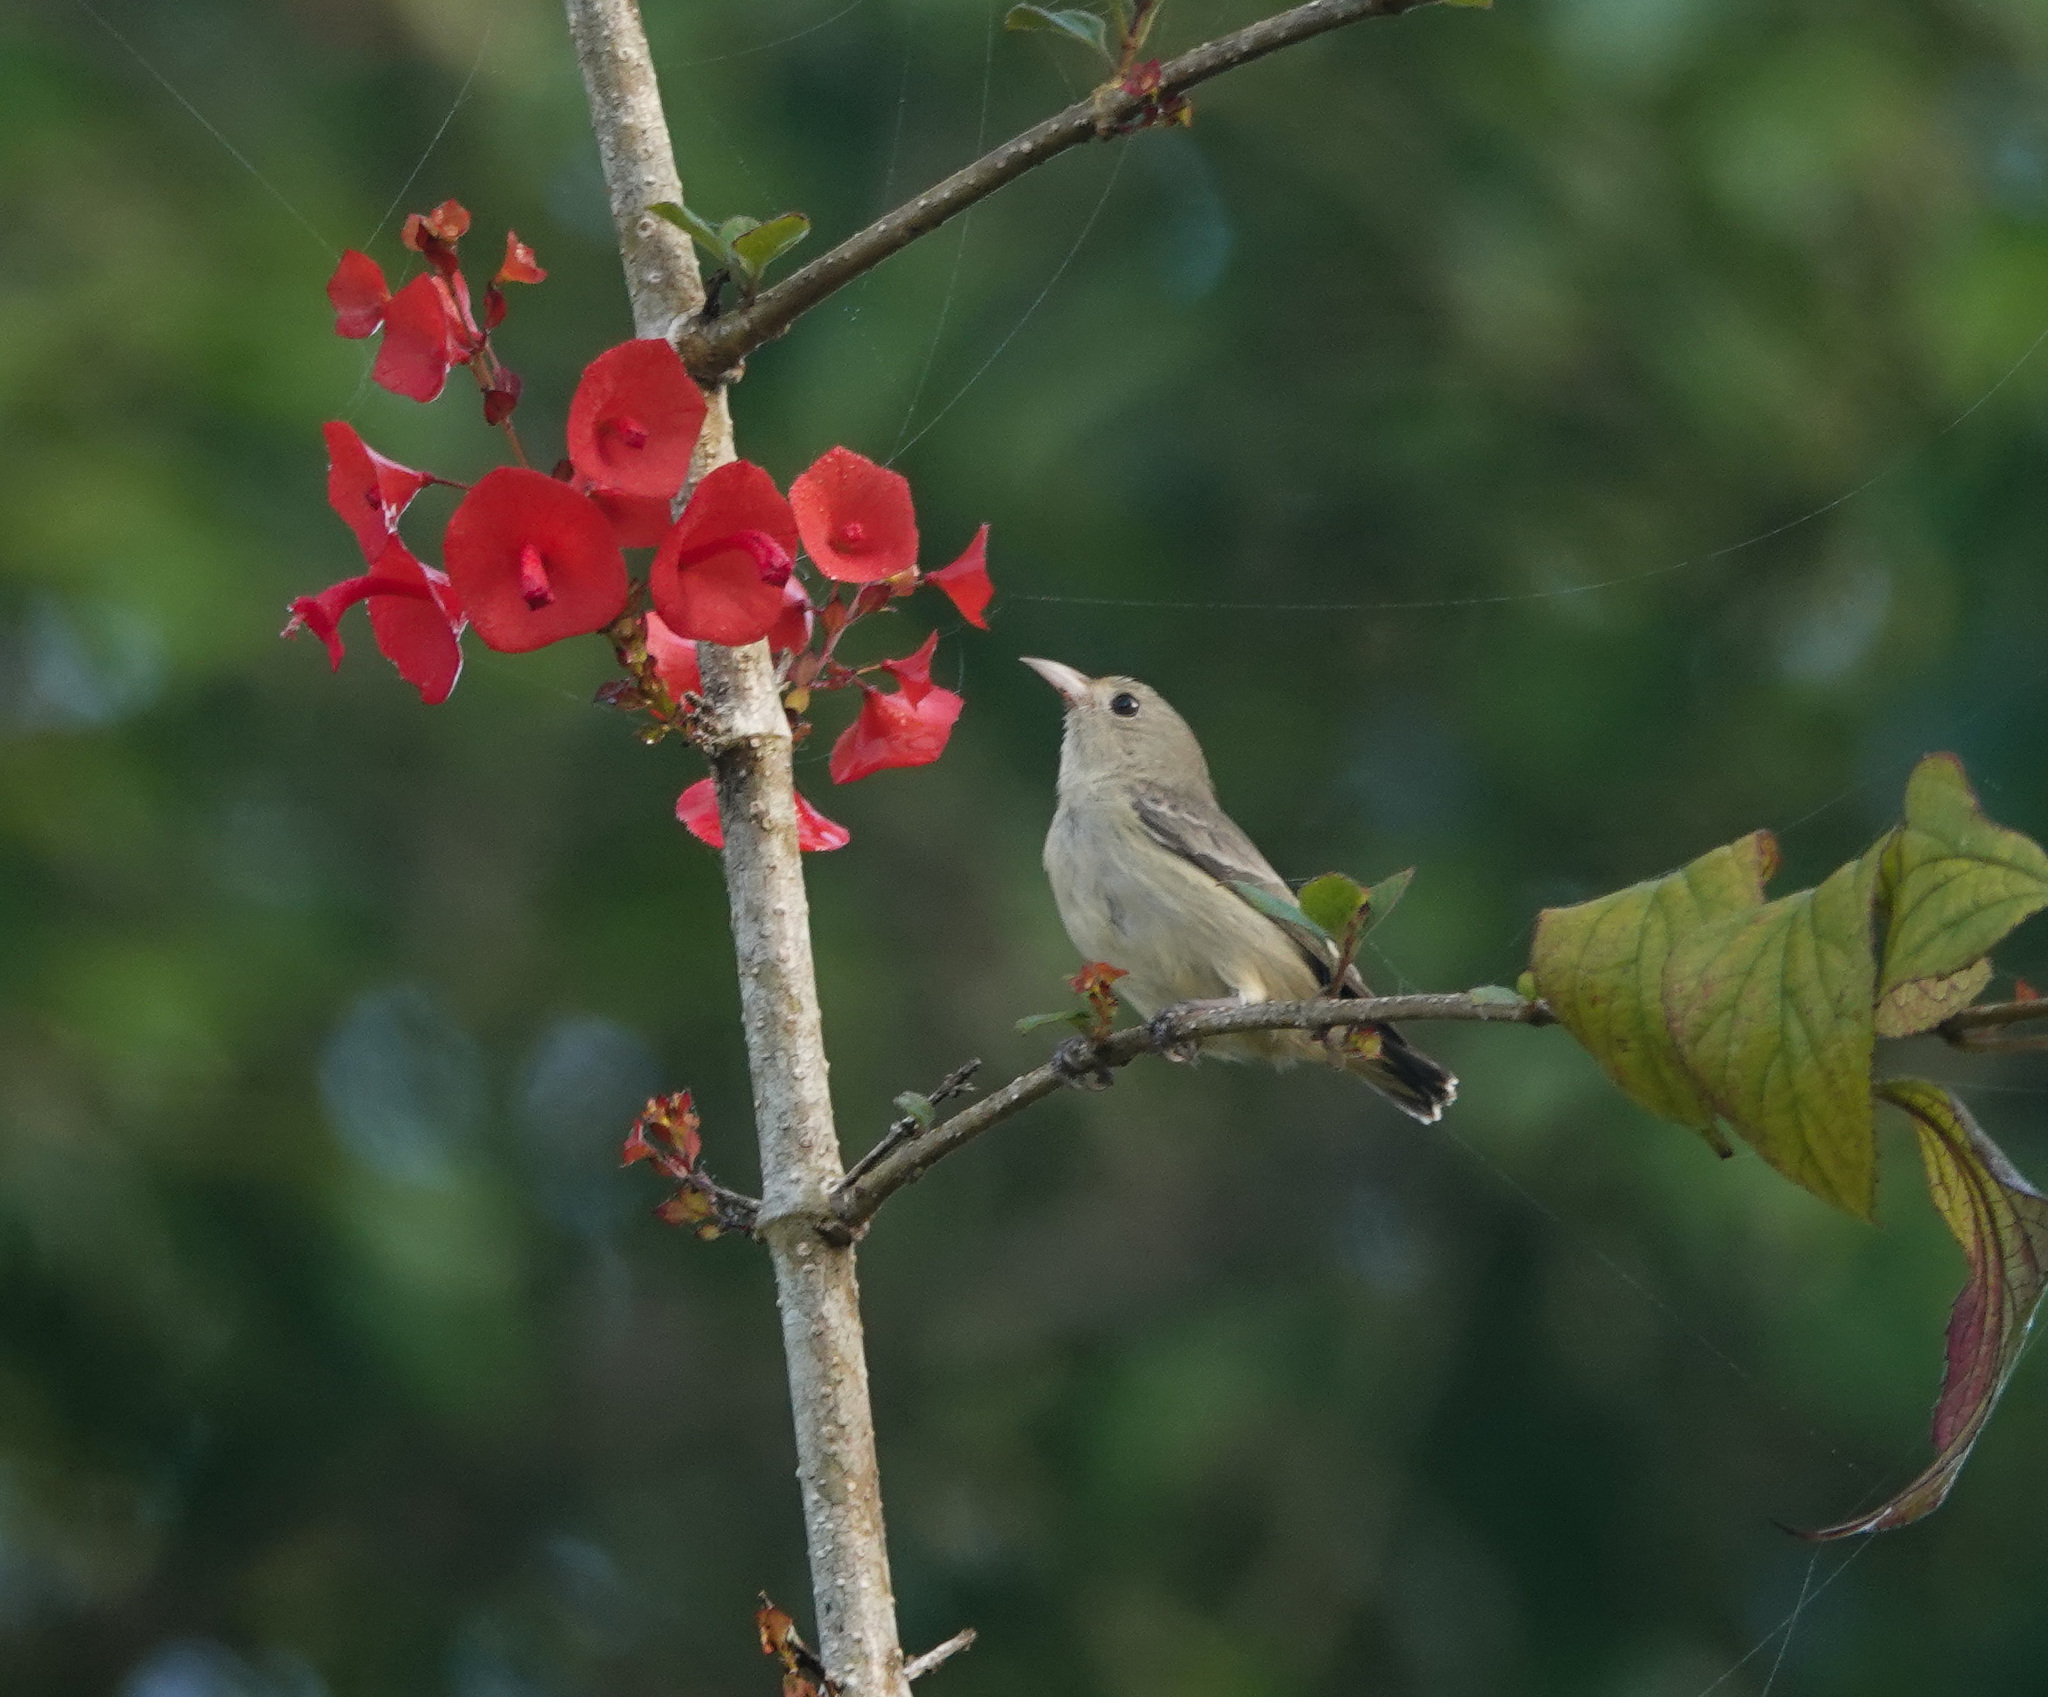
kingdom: Animalia
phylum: Chordata
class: Aves
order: Passeriformes
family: Dicaeidae
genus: Dicaeum
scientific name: Dicaeum erythrorhynchos
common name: Pale-billed flowerpecker
